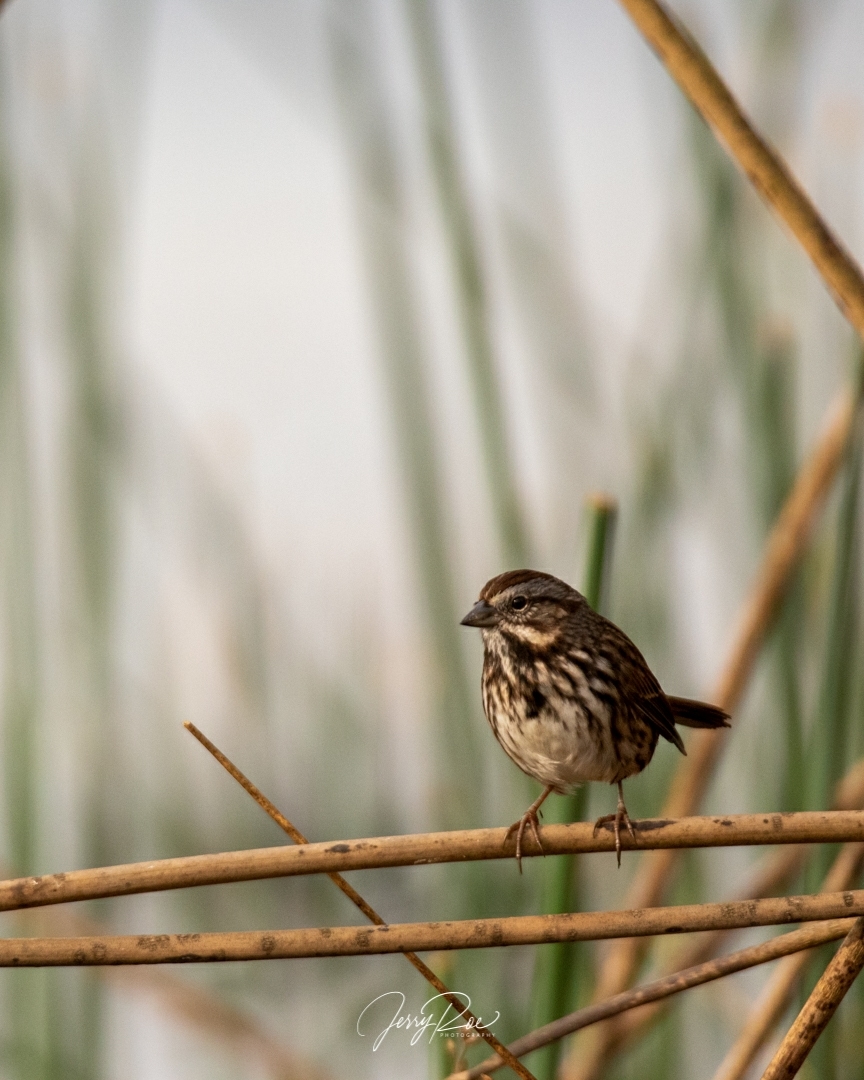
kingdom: Animalia
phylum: Chordata
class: Aves
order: Passeriformes
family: Passerellidae
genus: Melospiza
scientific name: Melospiza melodia
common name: Song sparrow
